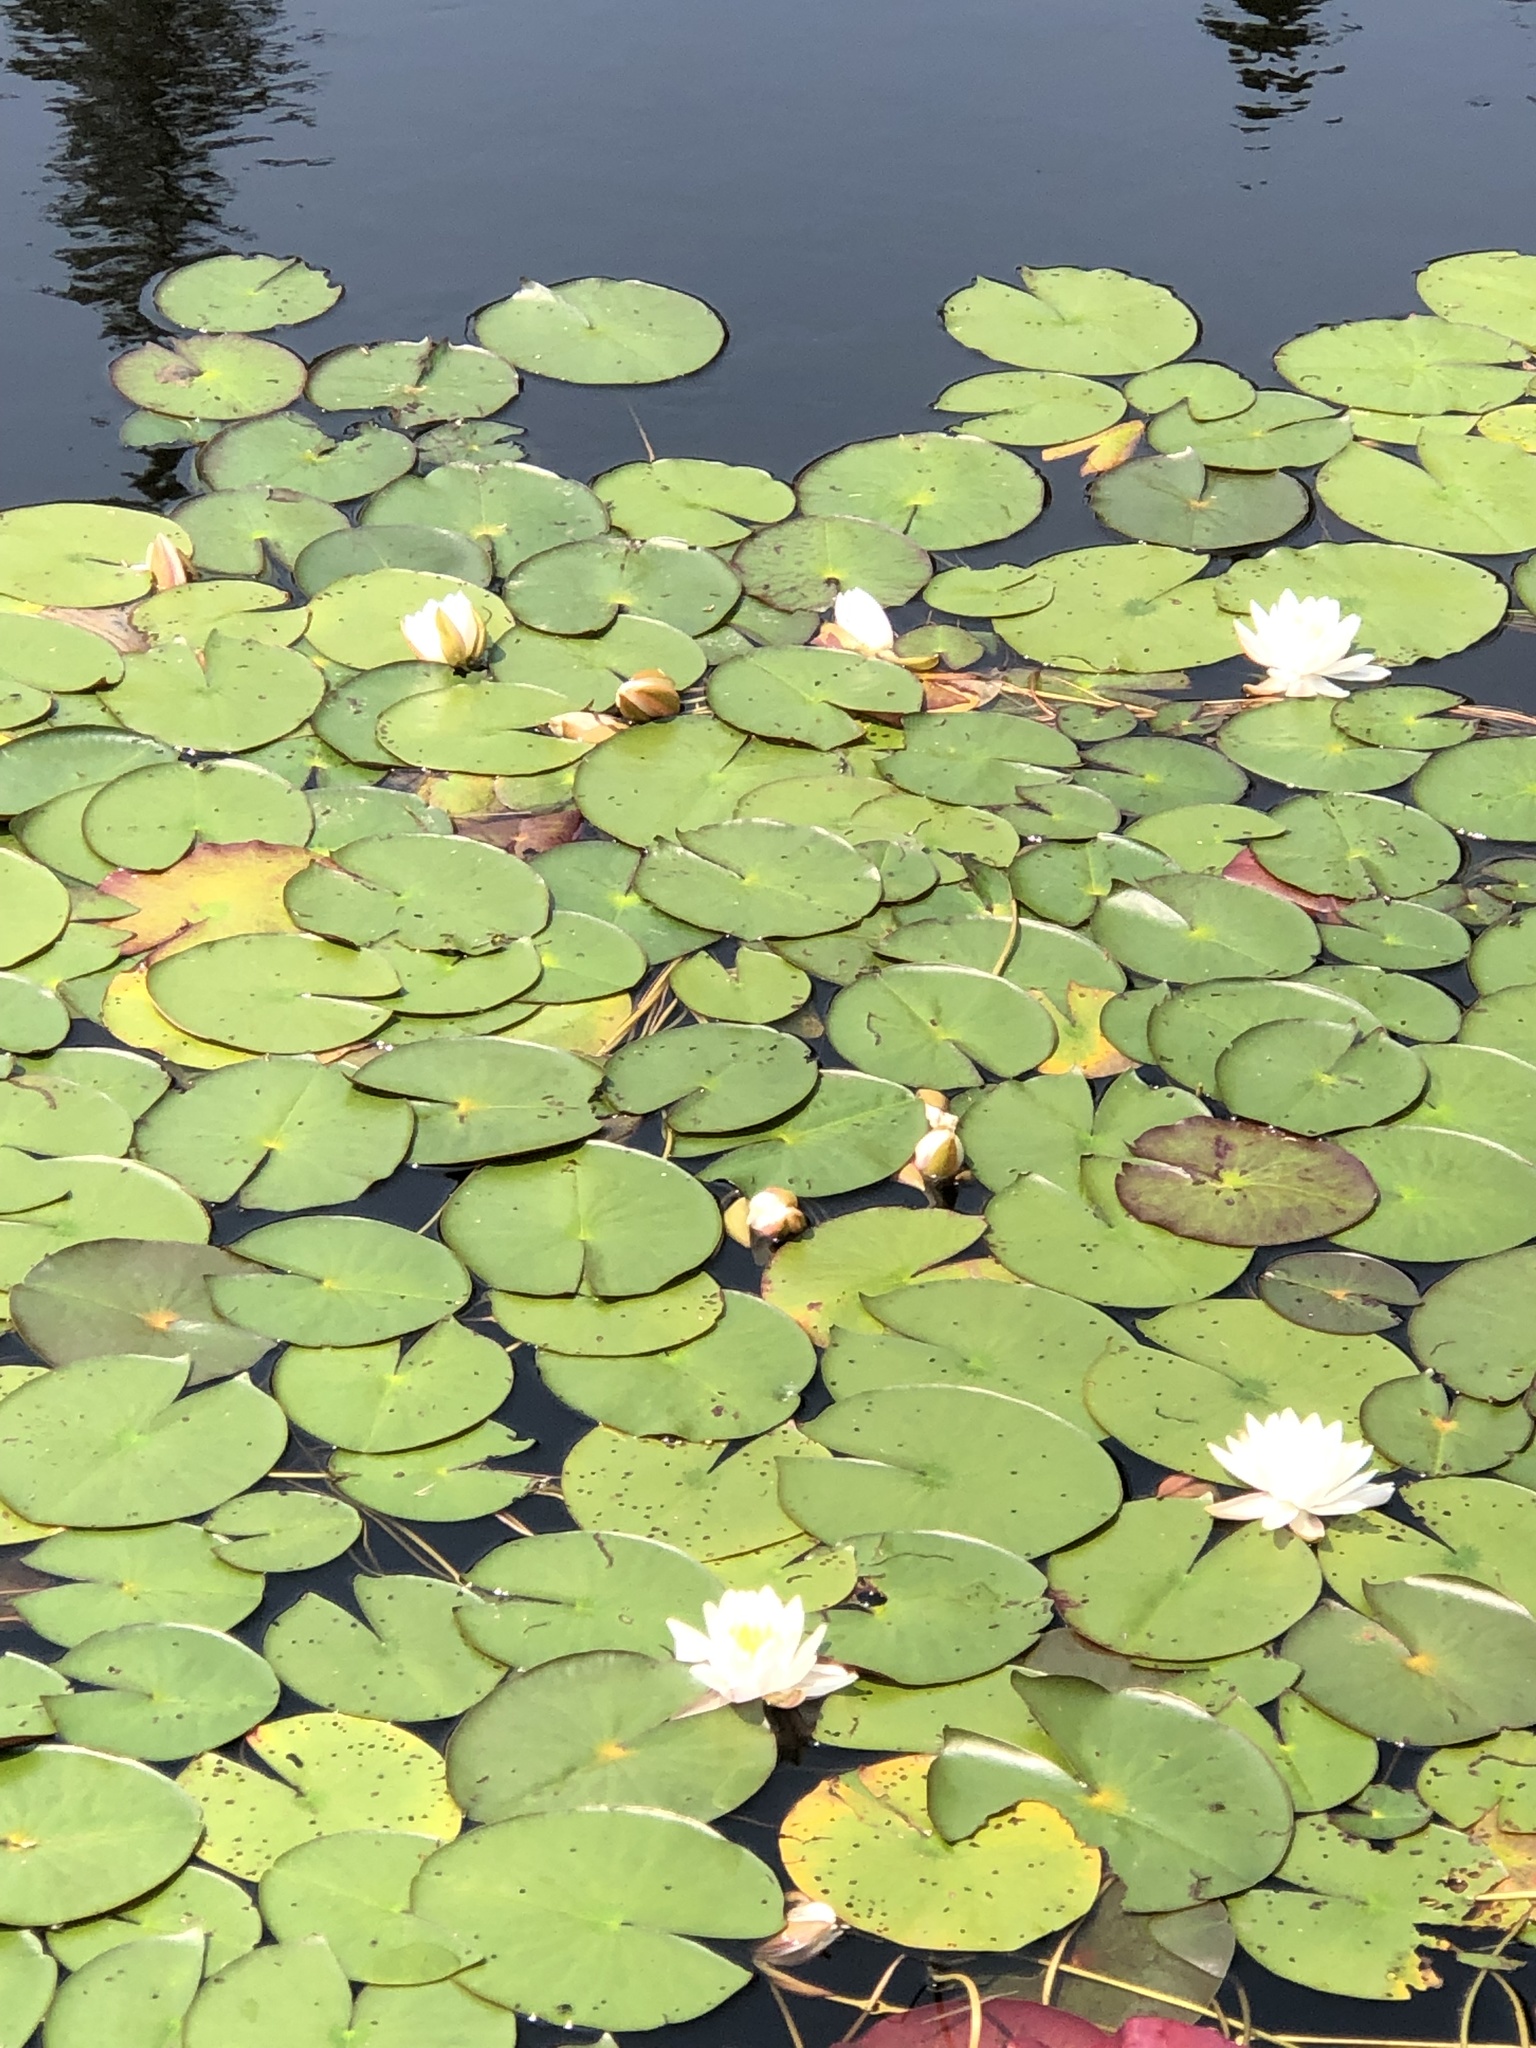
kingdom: Plantae
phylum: Tracheophyta
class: Magnoliopsida
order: Nymphaeales
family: Nymphaeaceae
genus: Nymphaea
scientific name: Nymphaea odorata
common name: Fragrant water-lily
